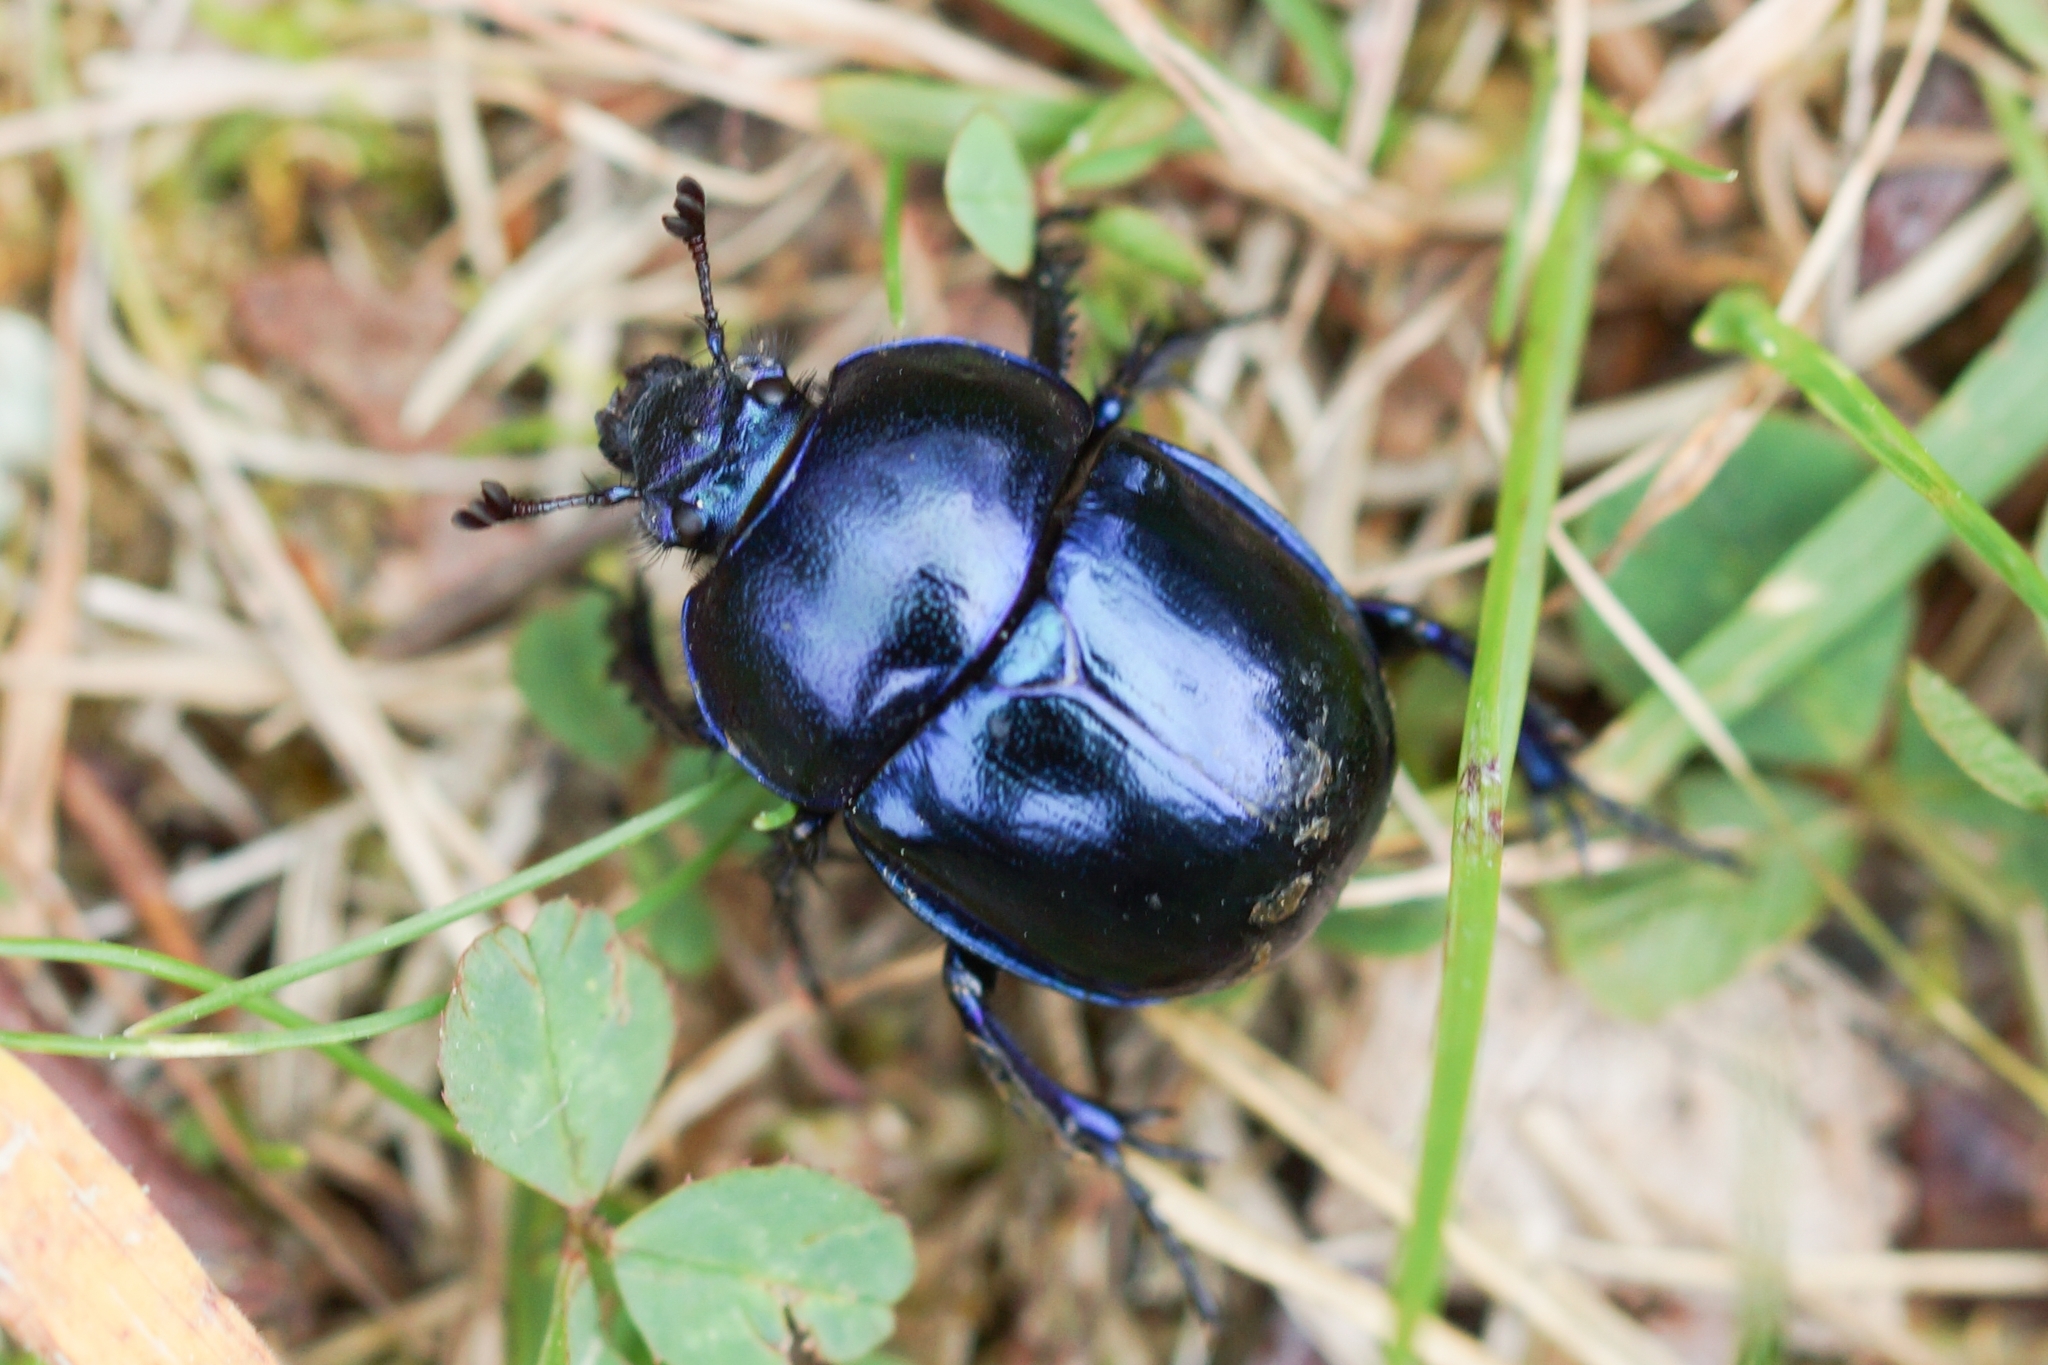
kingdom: Animalia
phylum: Arthropoda
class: Insecta
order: Coleoptera
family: Geotrupidae
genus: Trypocopris
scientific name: Trypocopris vernalis
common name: Spring dumbledor
